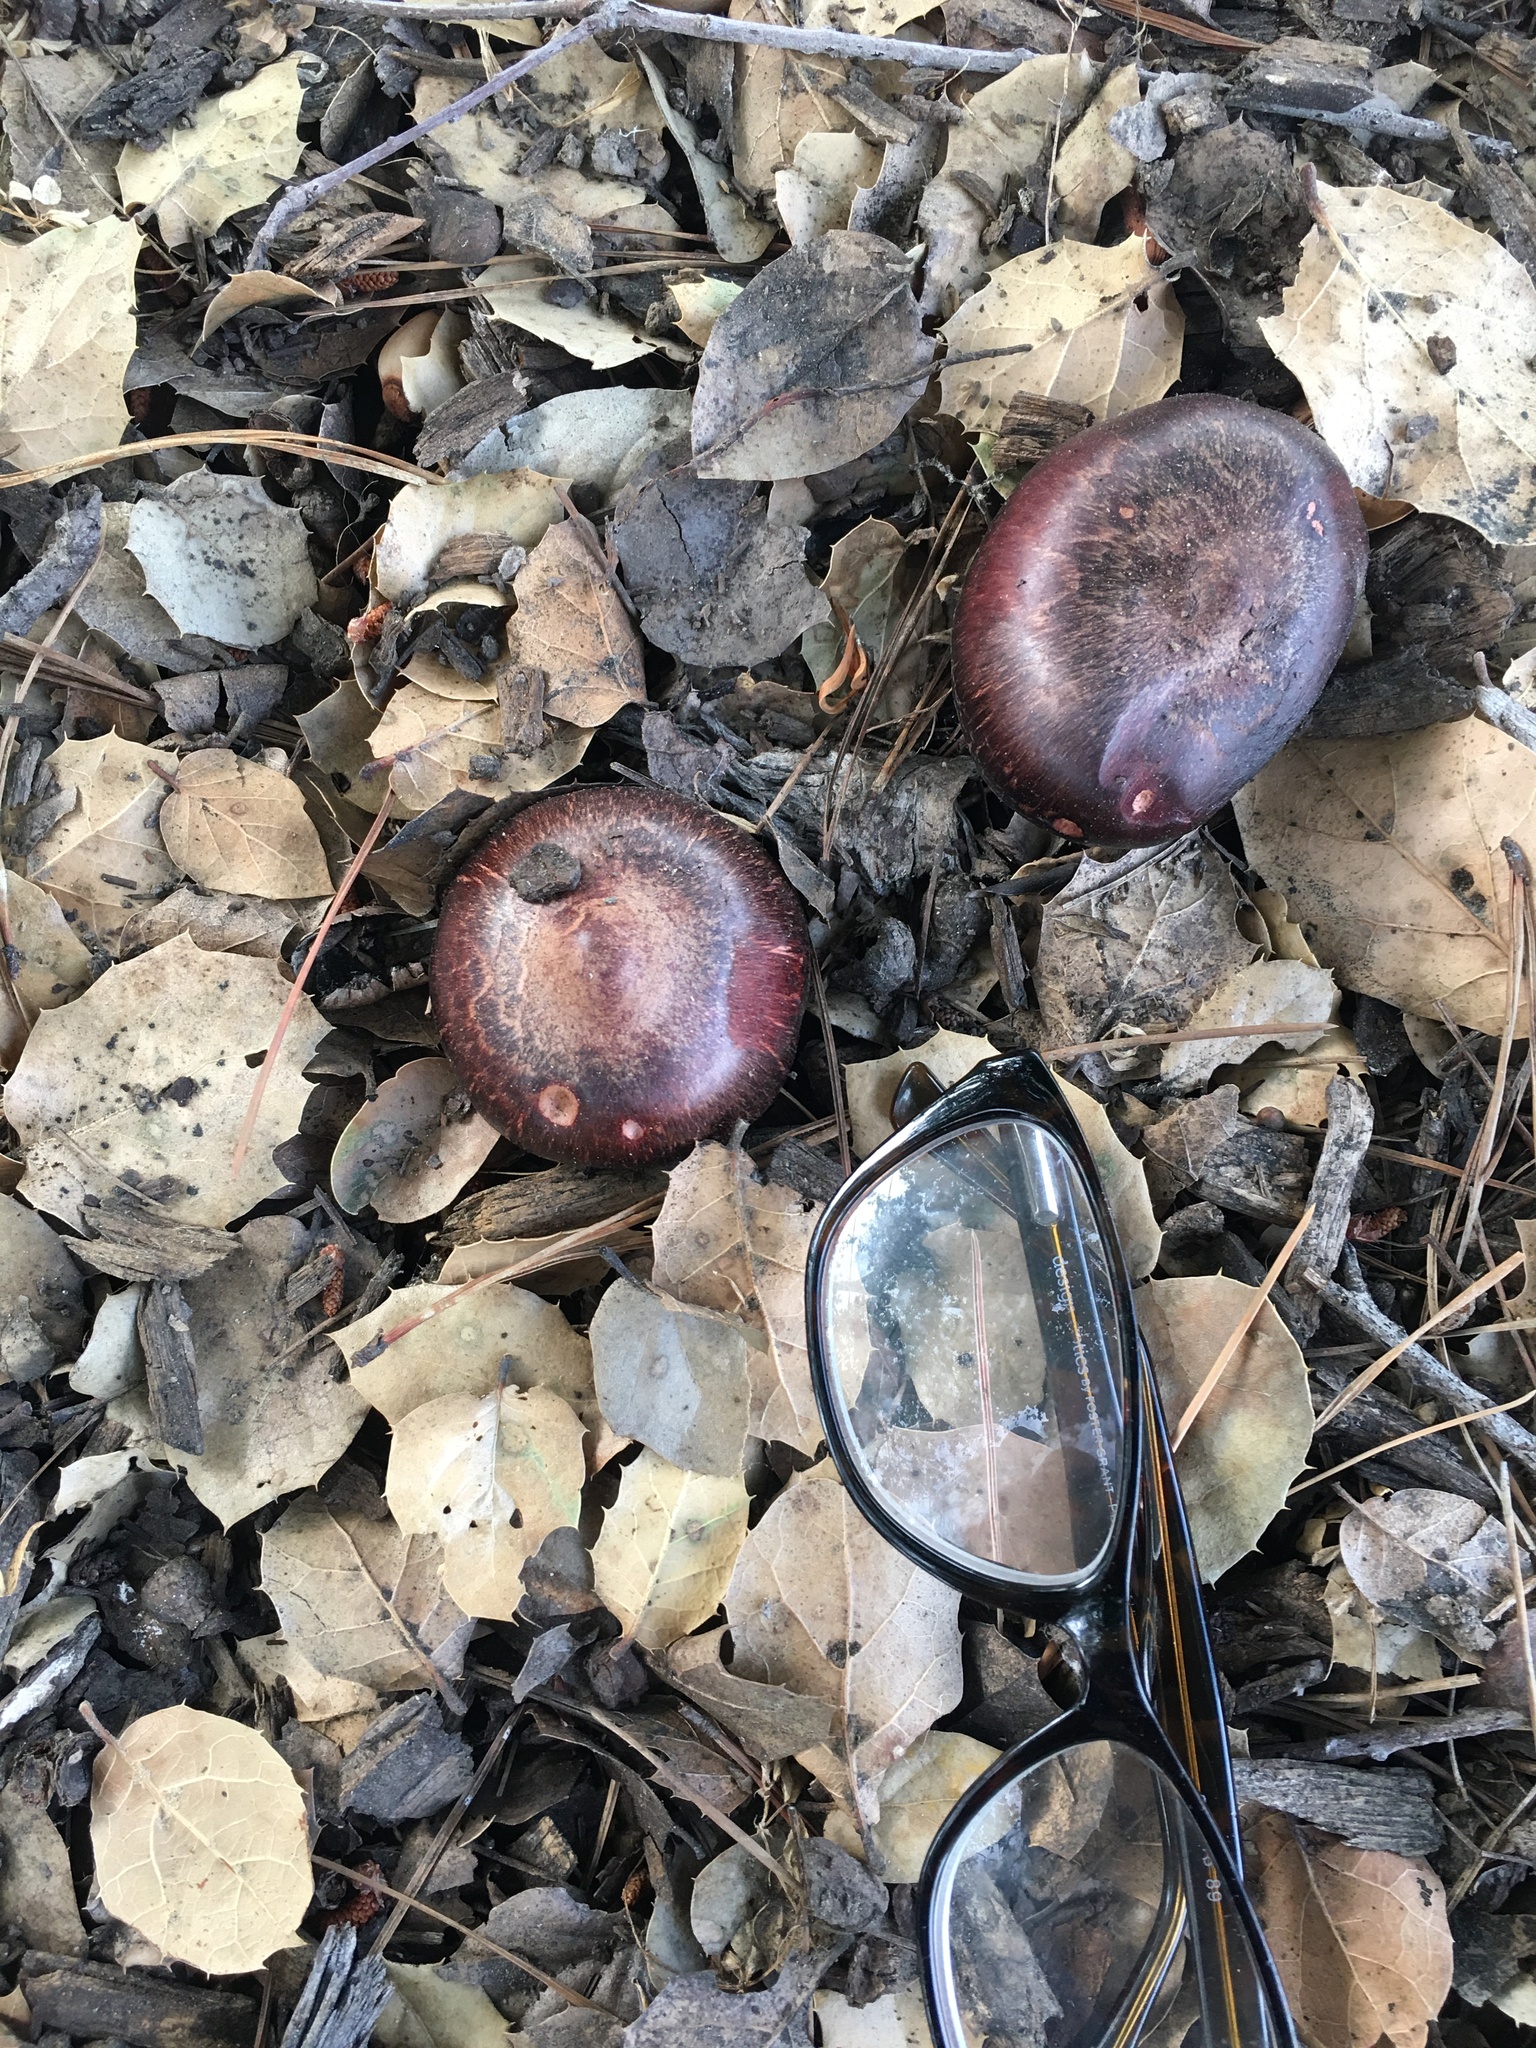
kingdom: Fungi
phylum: Basidiomycota
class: Agaricomycetes
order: Boletales
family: Gomphidiaceae
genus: Chroogomphus
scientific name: Chroogomphus vinicolor
